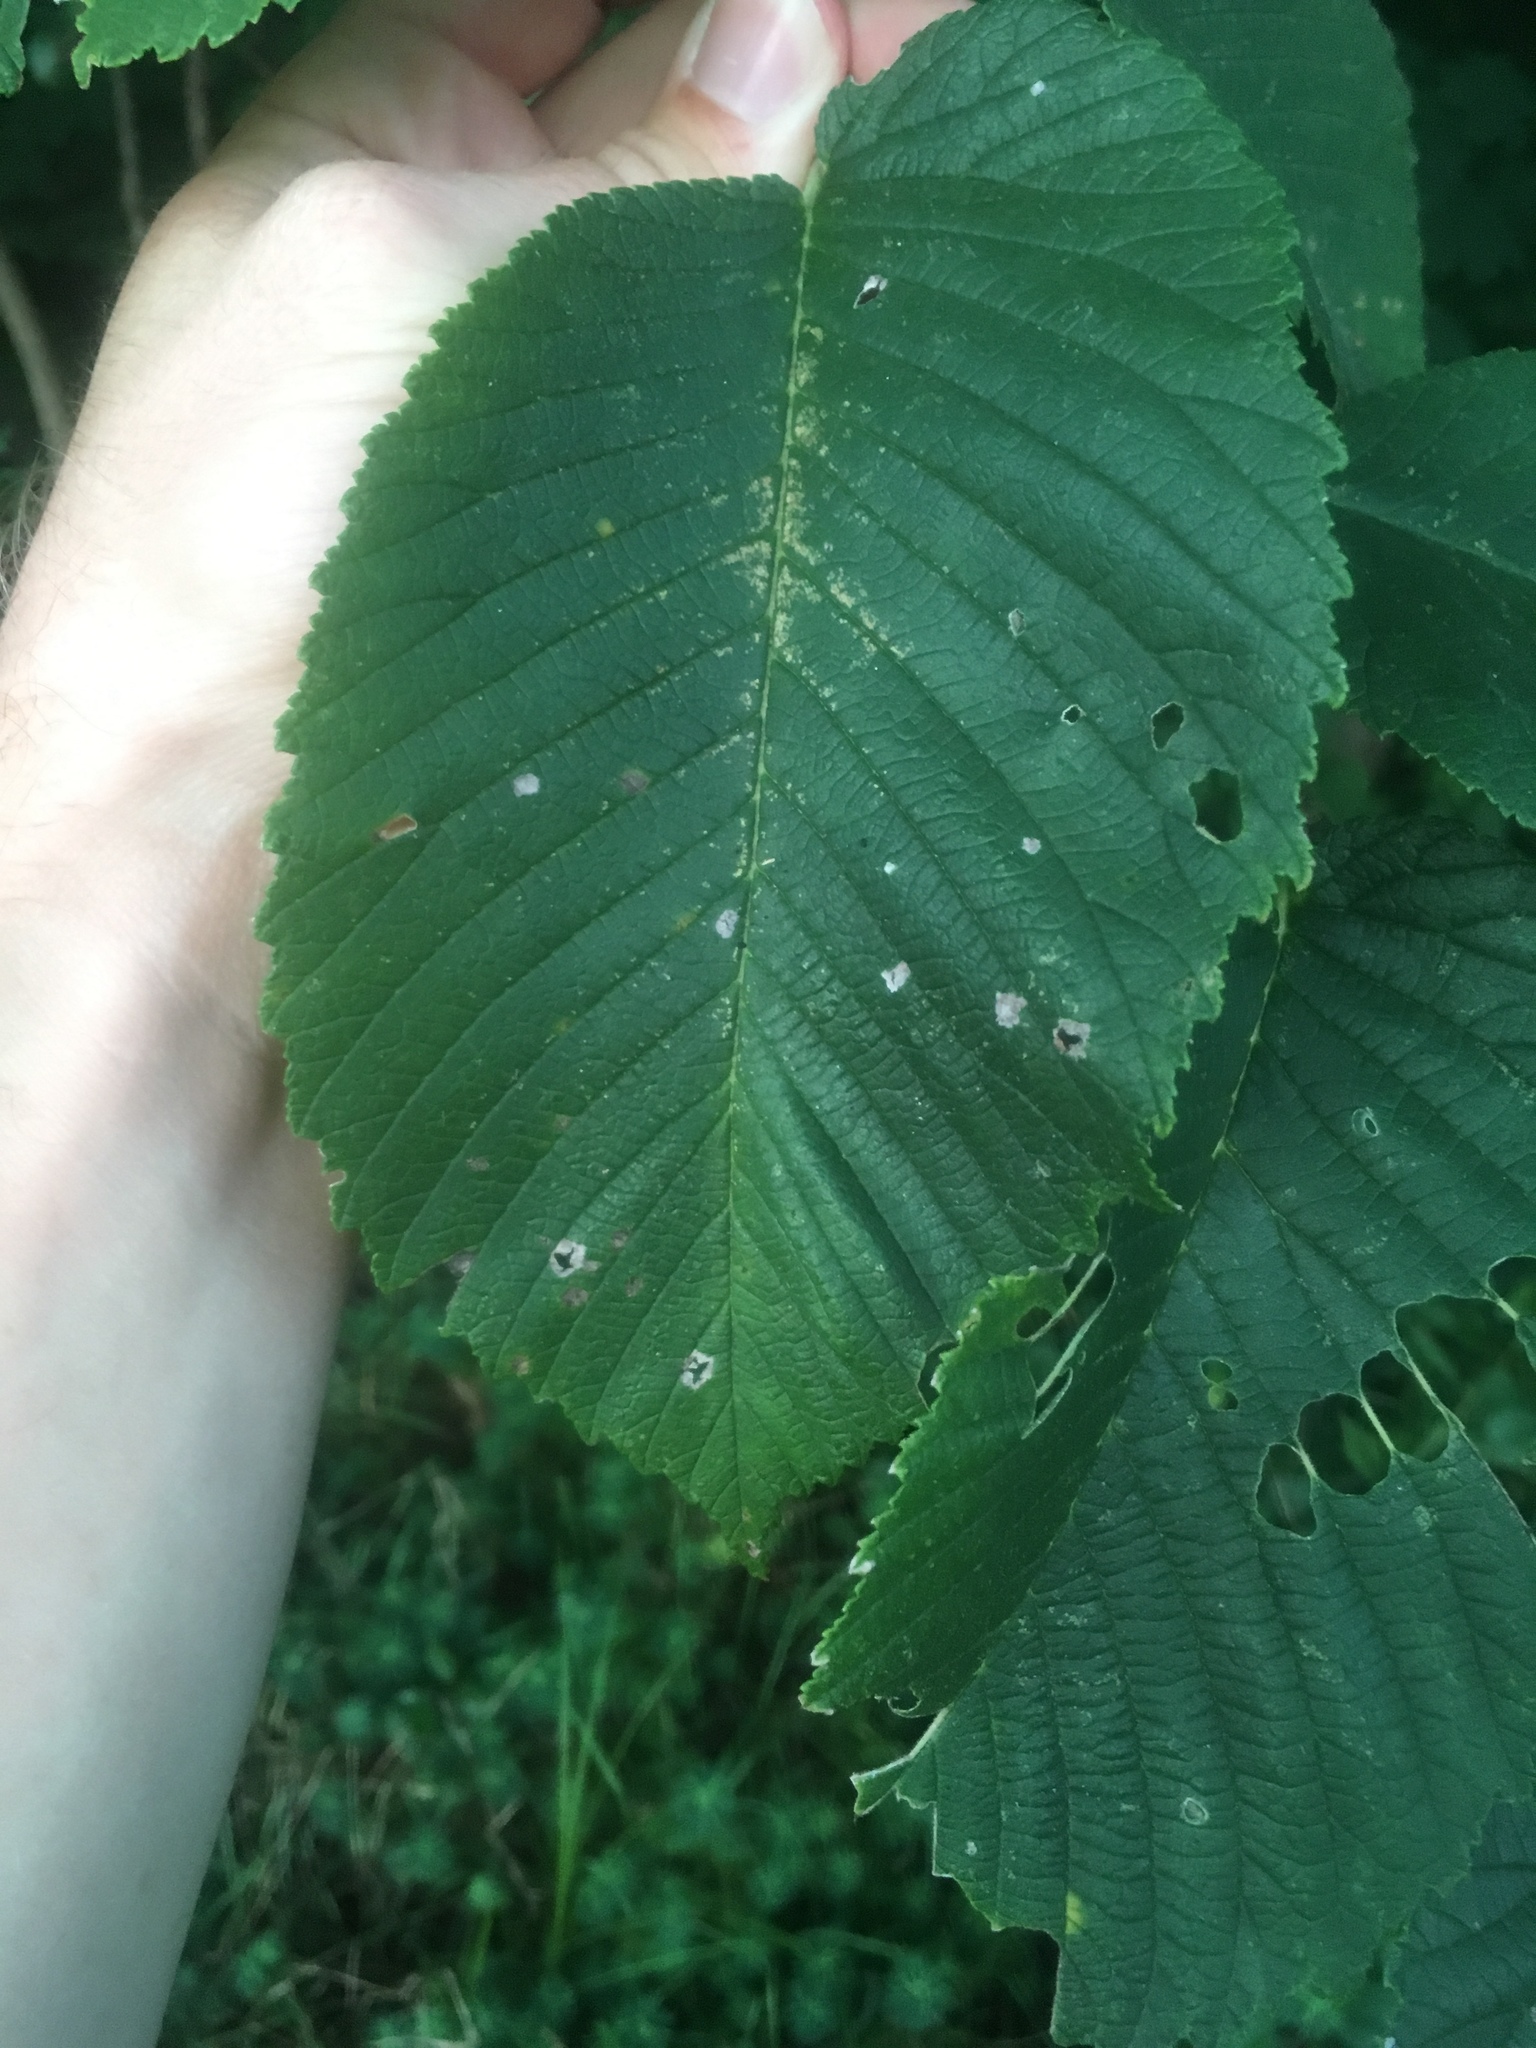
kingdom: Plantae
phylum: Tracheophyta
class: Magnoliopsida
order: Rosales
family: Ulmaceae
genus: Ulmus
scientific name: Ulmus rubra
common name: Slippery elm
